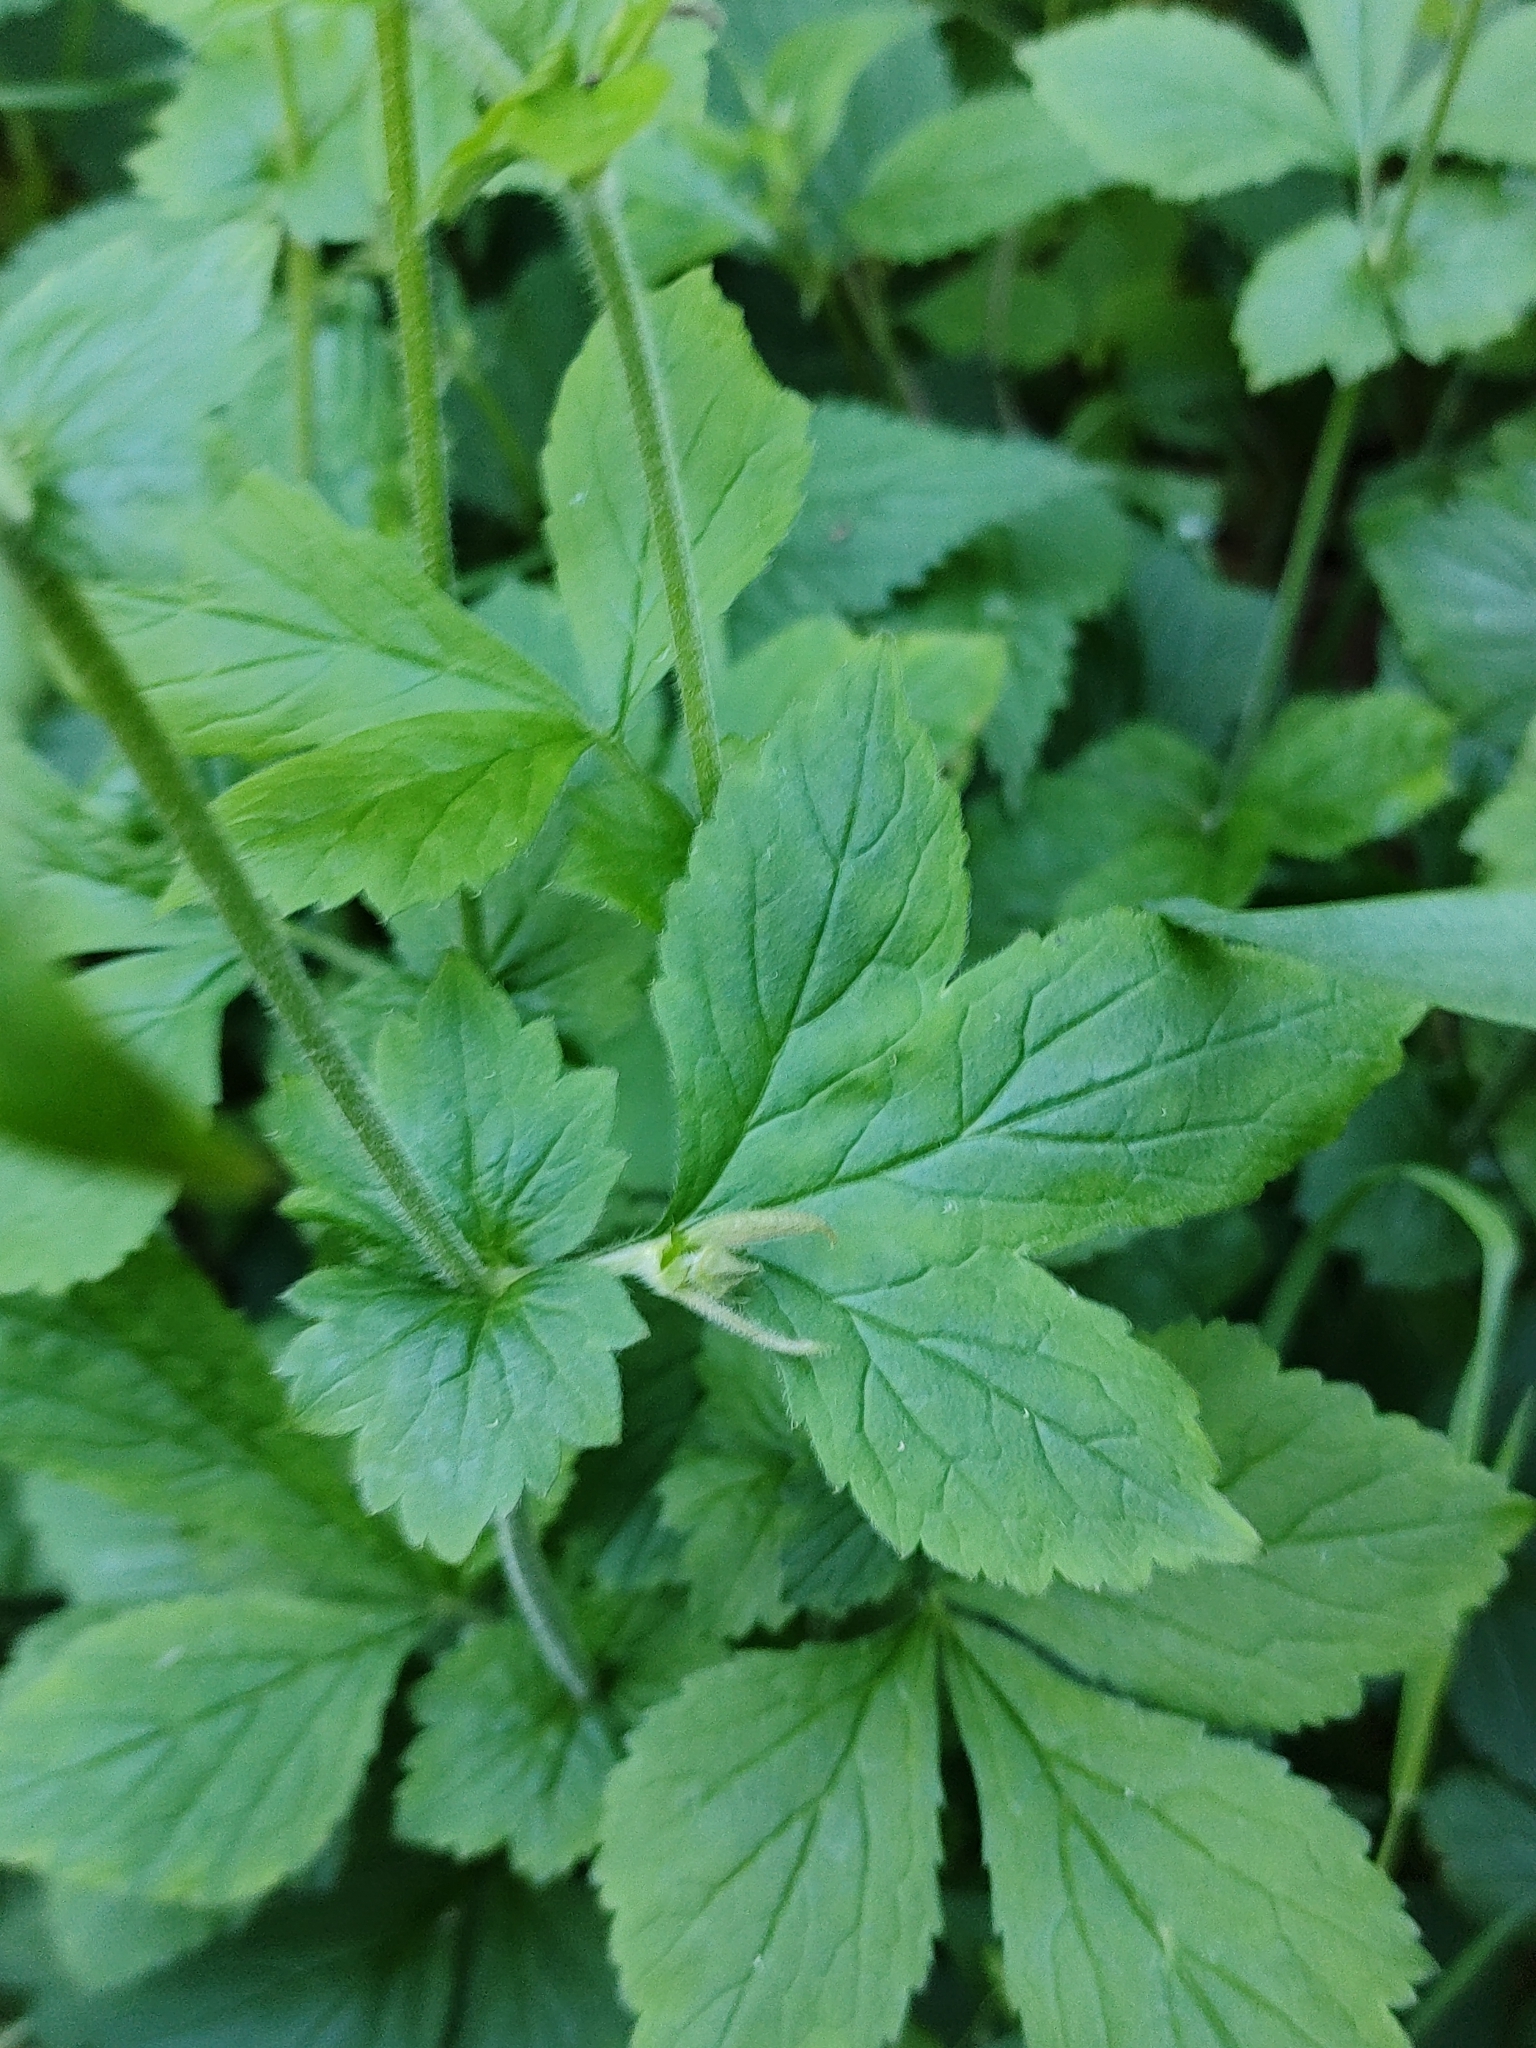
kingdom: Plantae
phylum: Tracheophyta
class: Magnoliopsida
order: Rosales
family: Rosaceae
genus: Geum
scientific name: Geum urbanum
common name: Wood avens
